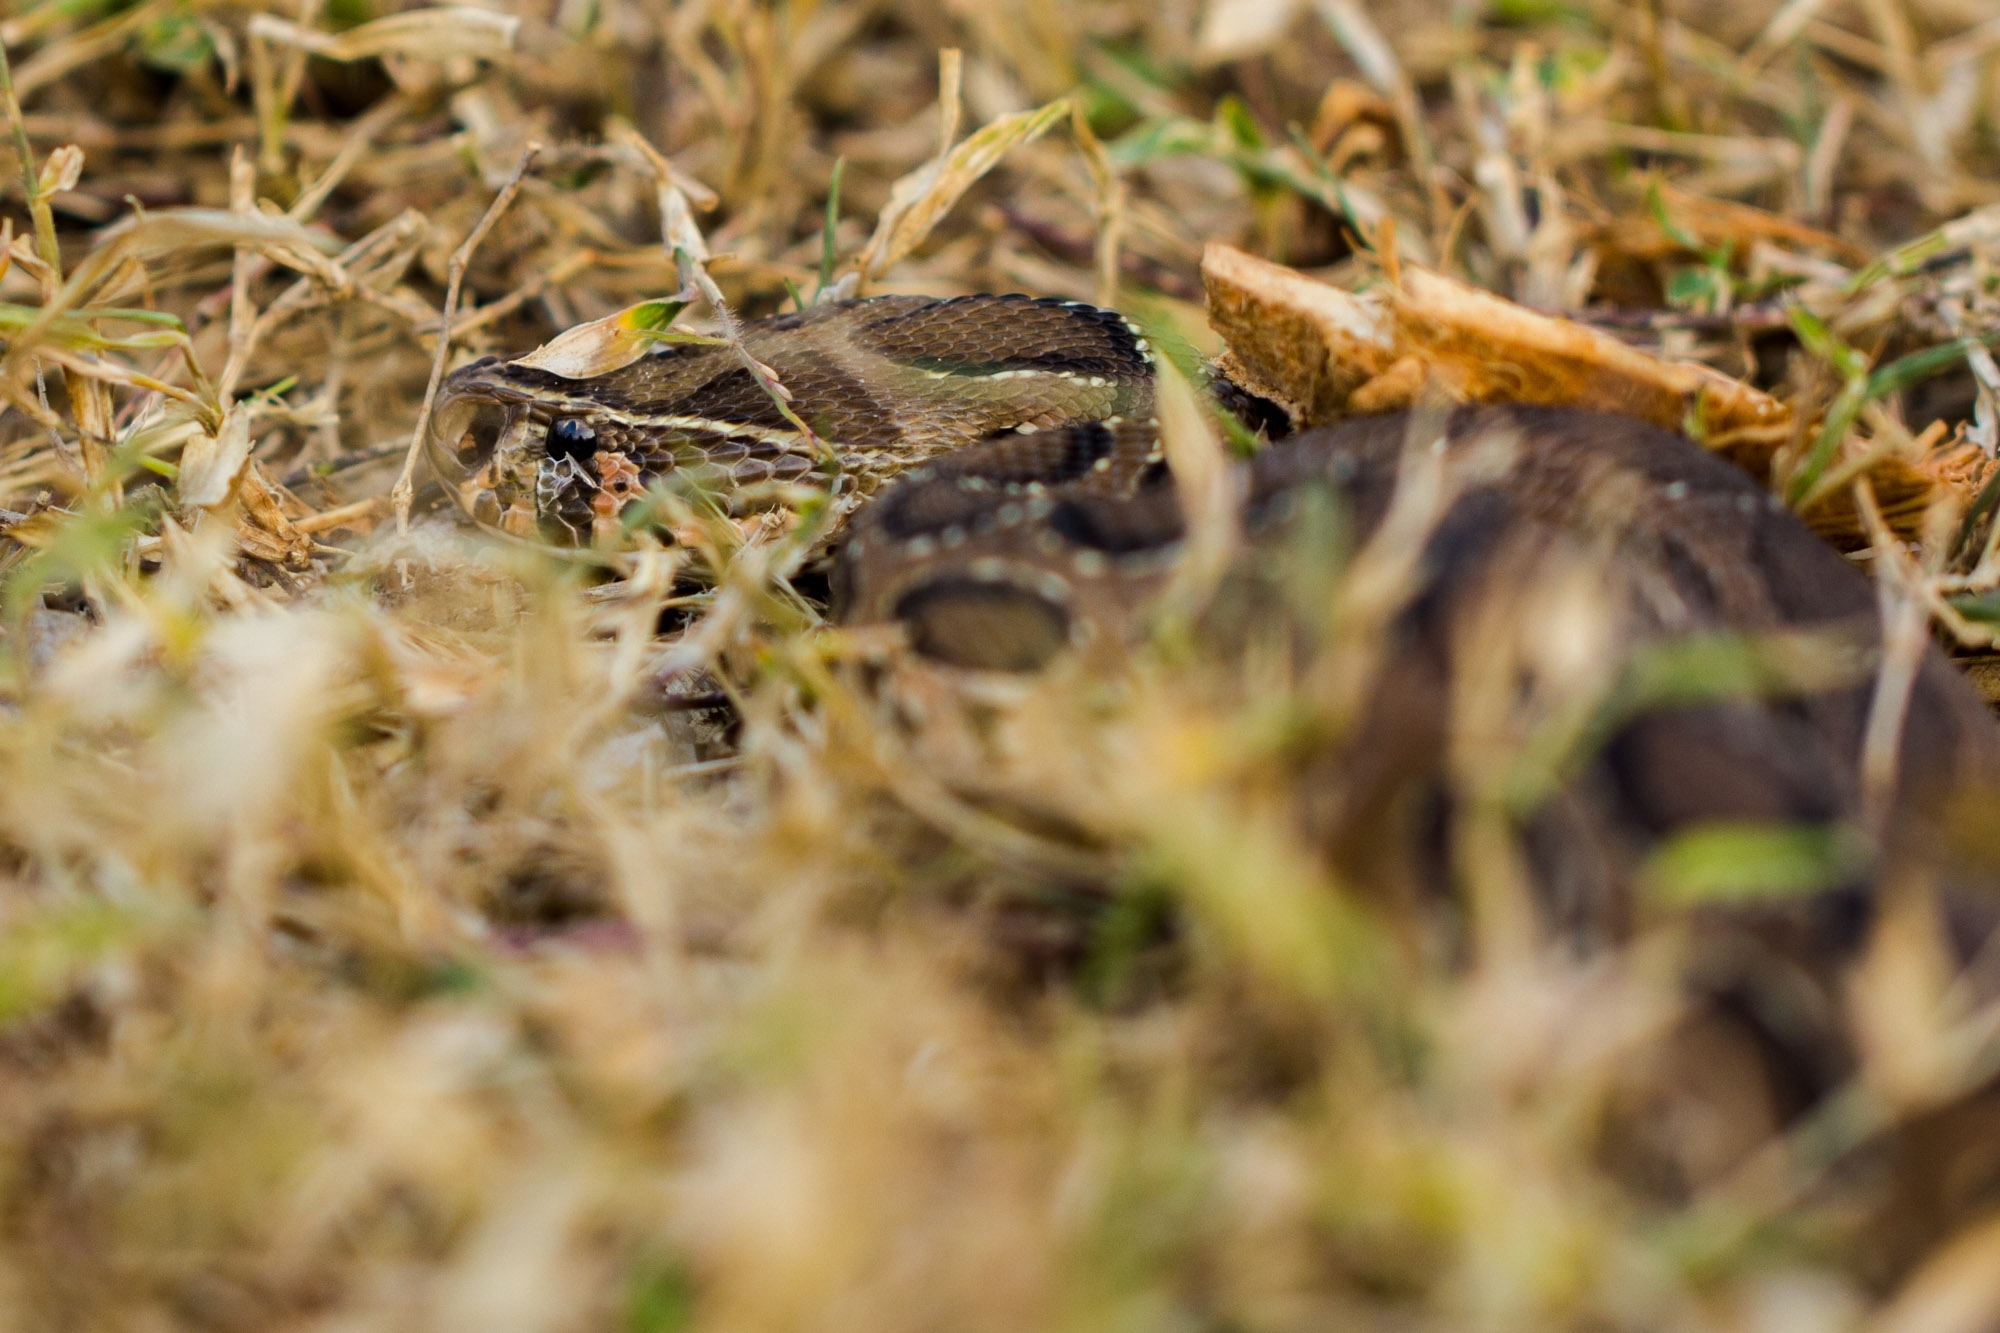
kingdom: Animalia
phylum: Chordata
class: Squamata
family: Viperidae
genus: Daboia
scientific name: Daboia russelii
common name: Western russel’s viper
